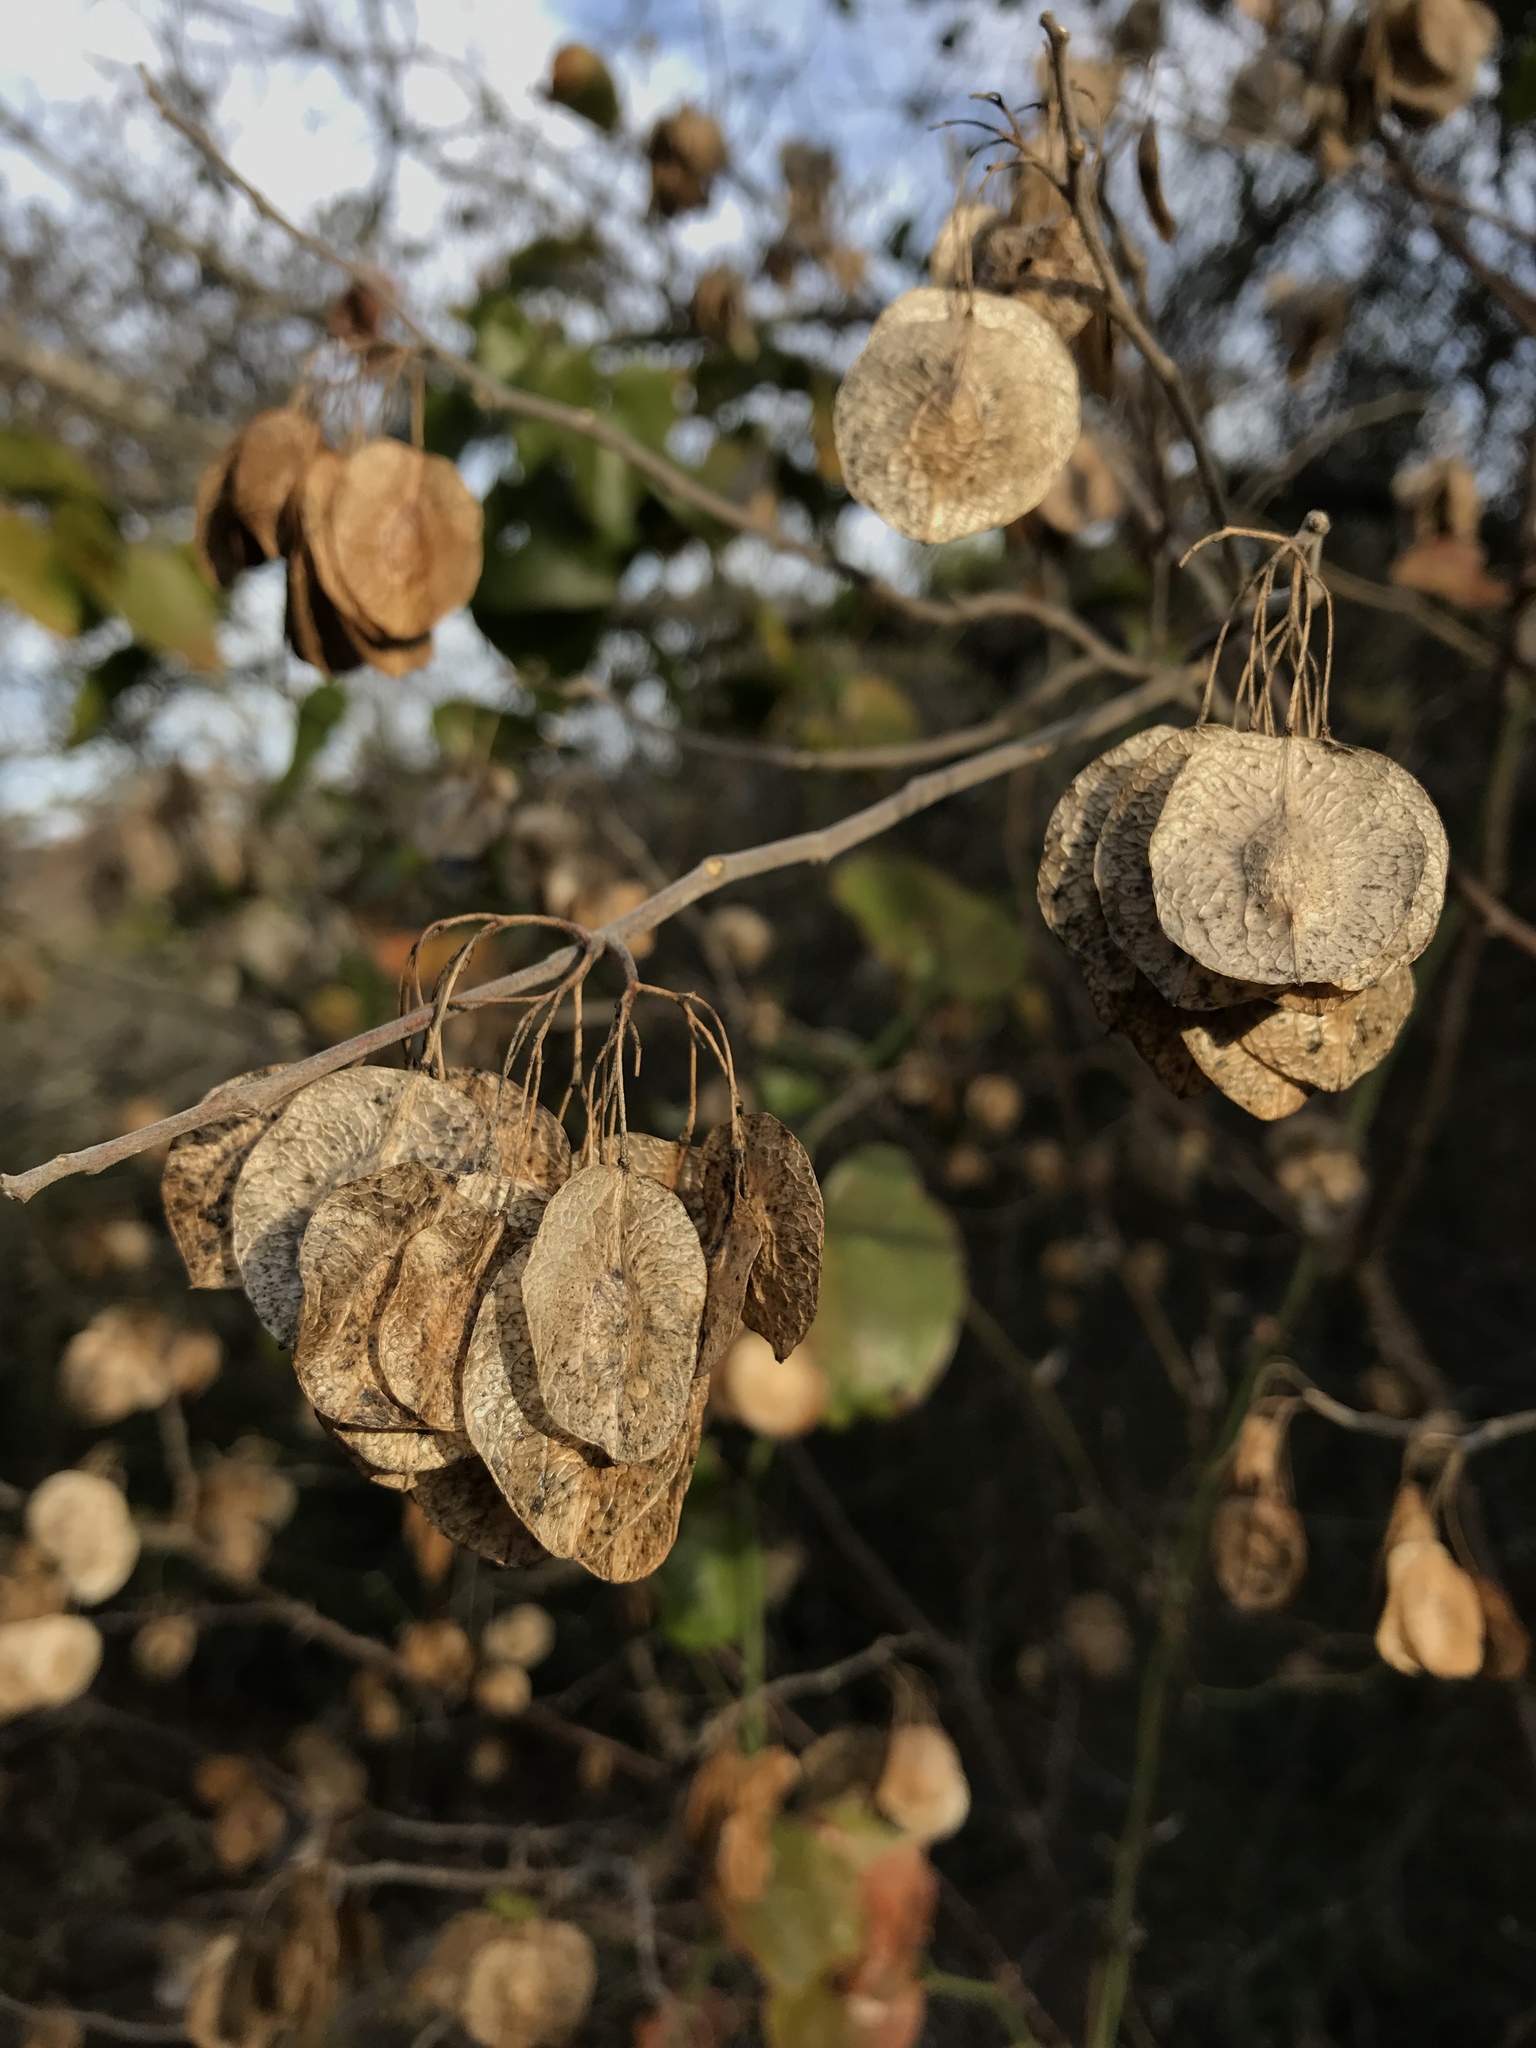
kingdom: Plantae
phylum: Tracheophyta
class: Magnoliopsida
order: Sapindales
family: Rutaceae
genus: Ptelea
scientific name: Ptelea trifoliata
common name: Common hop-tree
